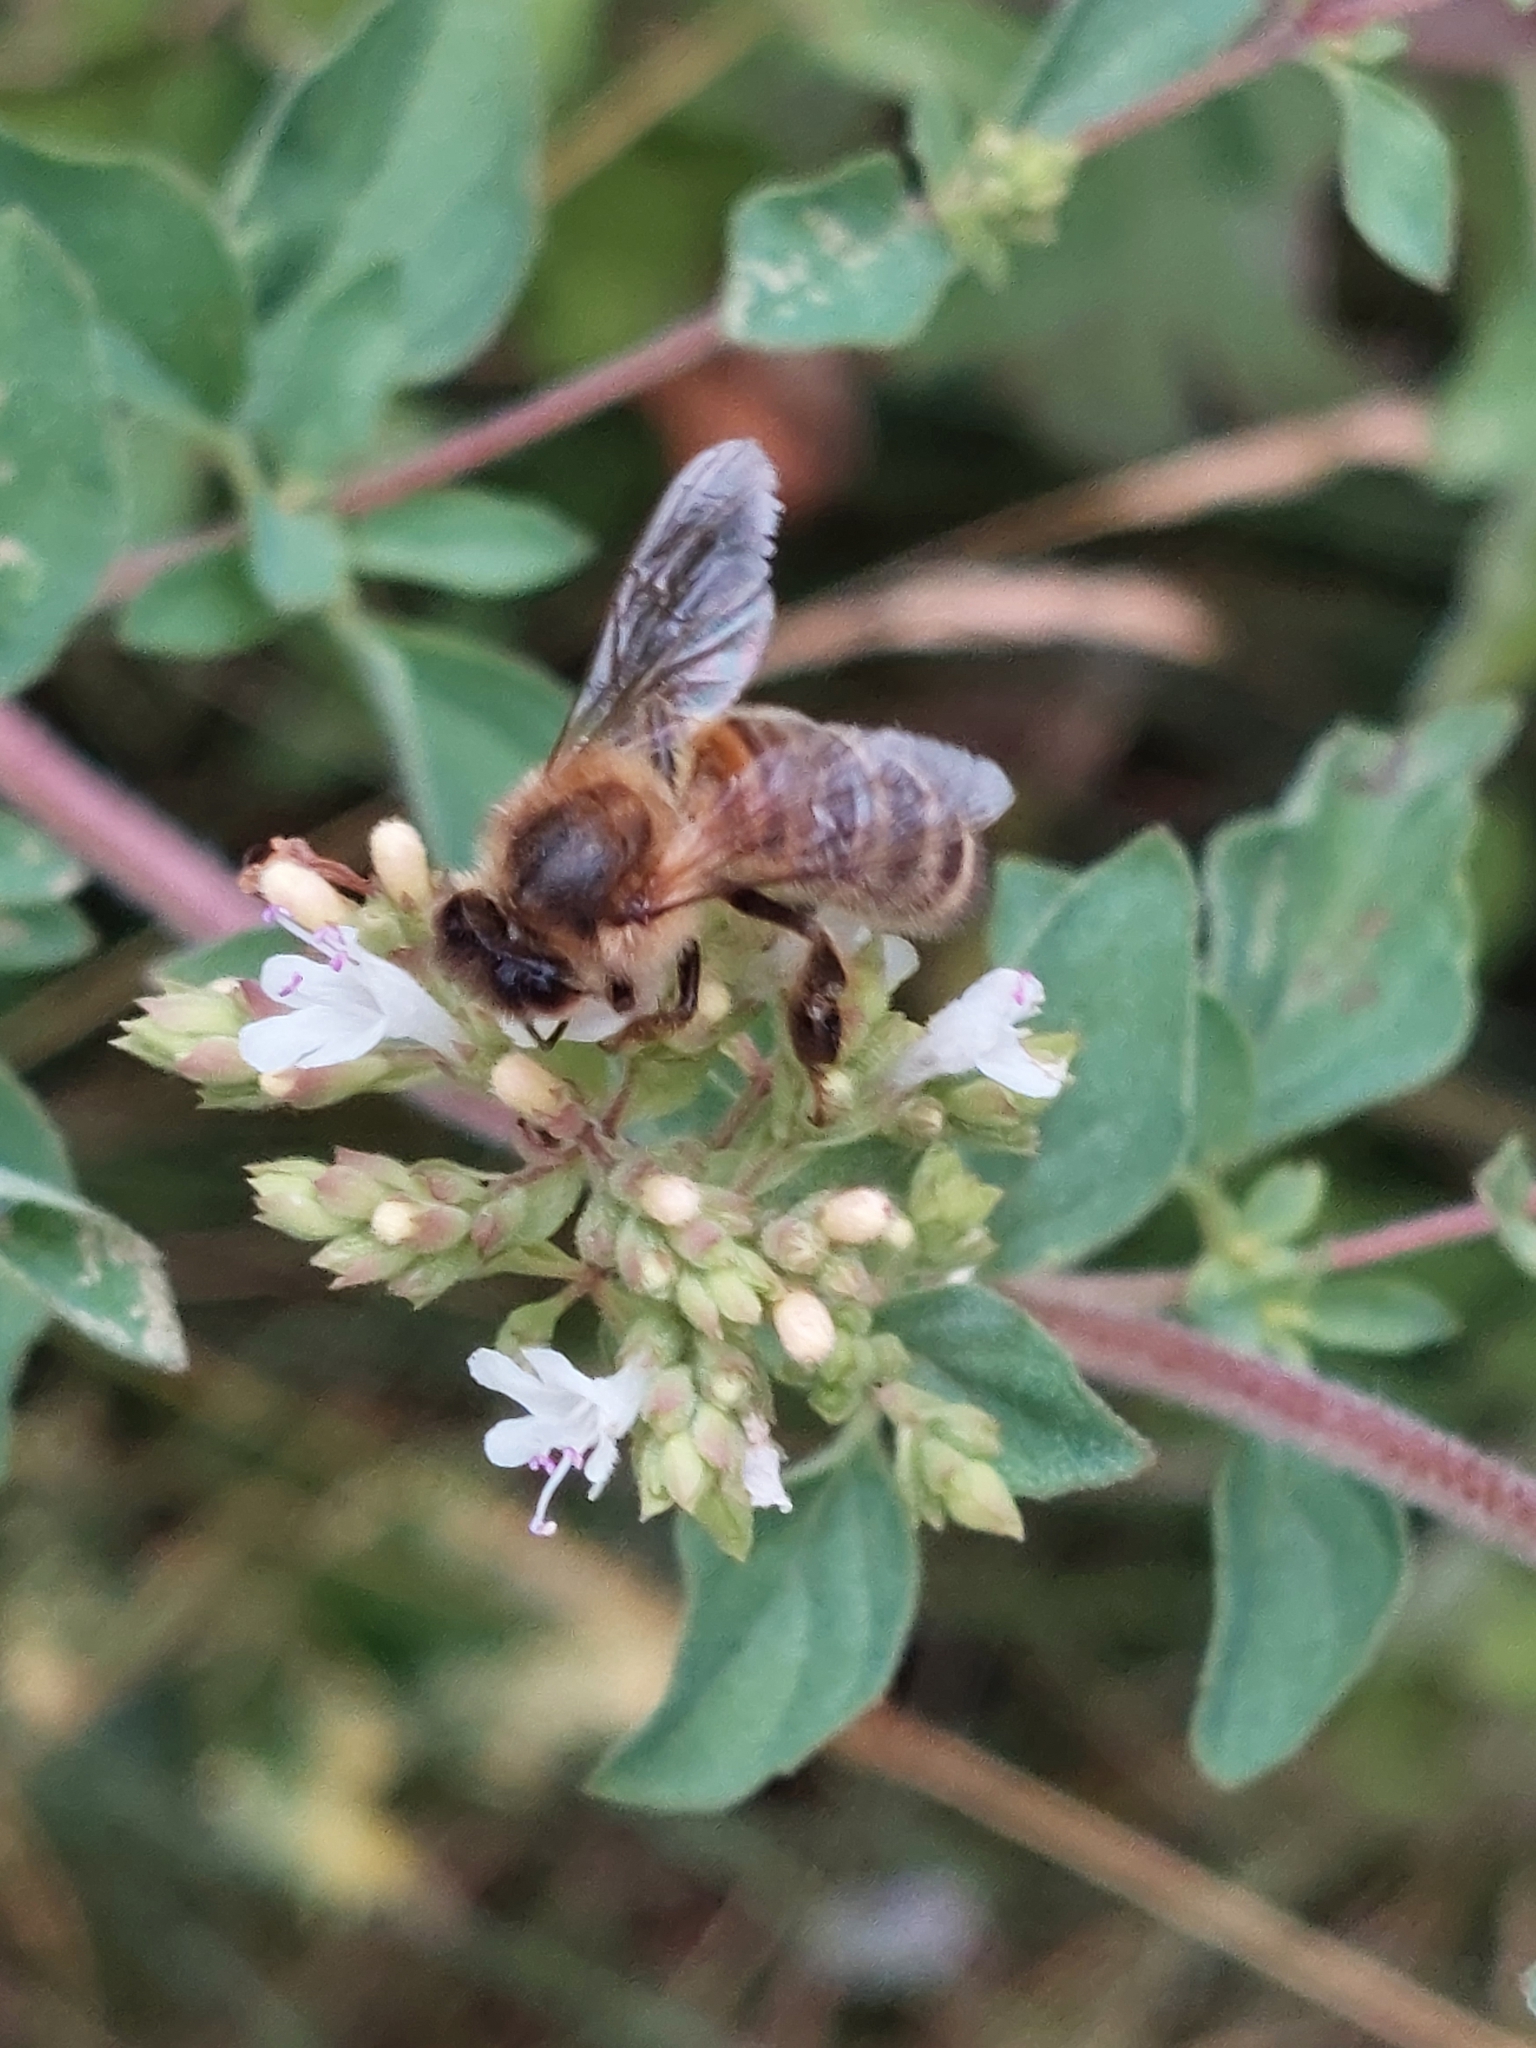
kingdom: Animalia
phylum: Arthropoda
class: Insecta
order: Hymenoptera
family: Apidae
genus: Apis
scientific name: Apis mellifera
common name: Honey bee
